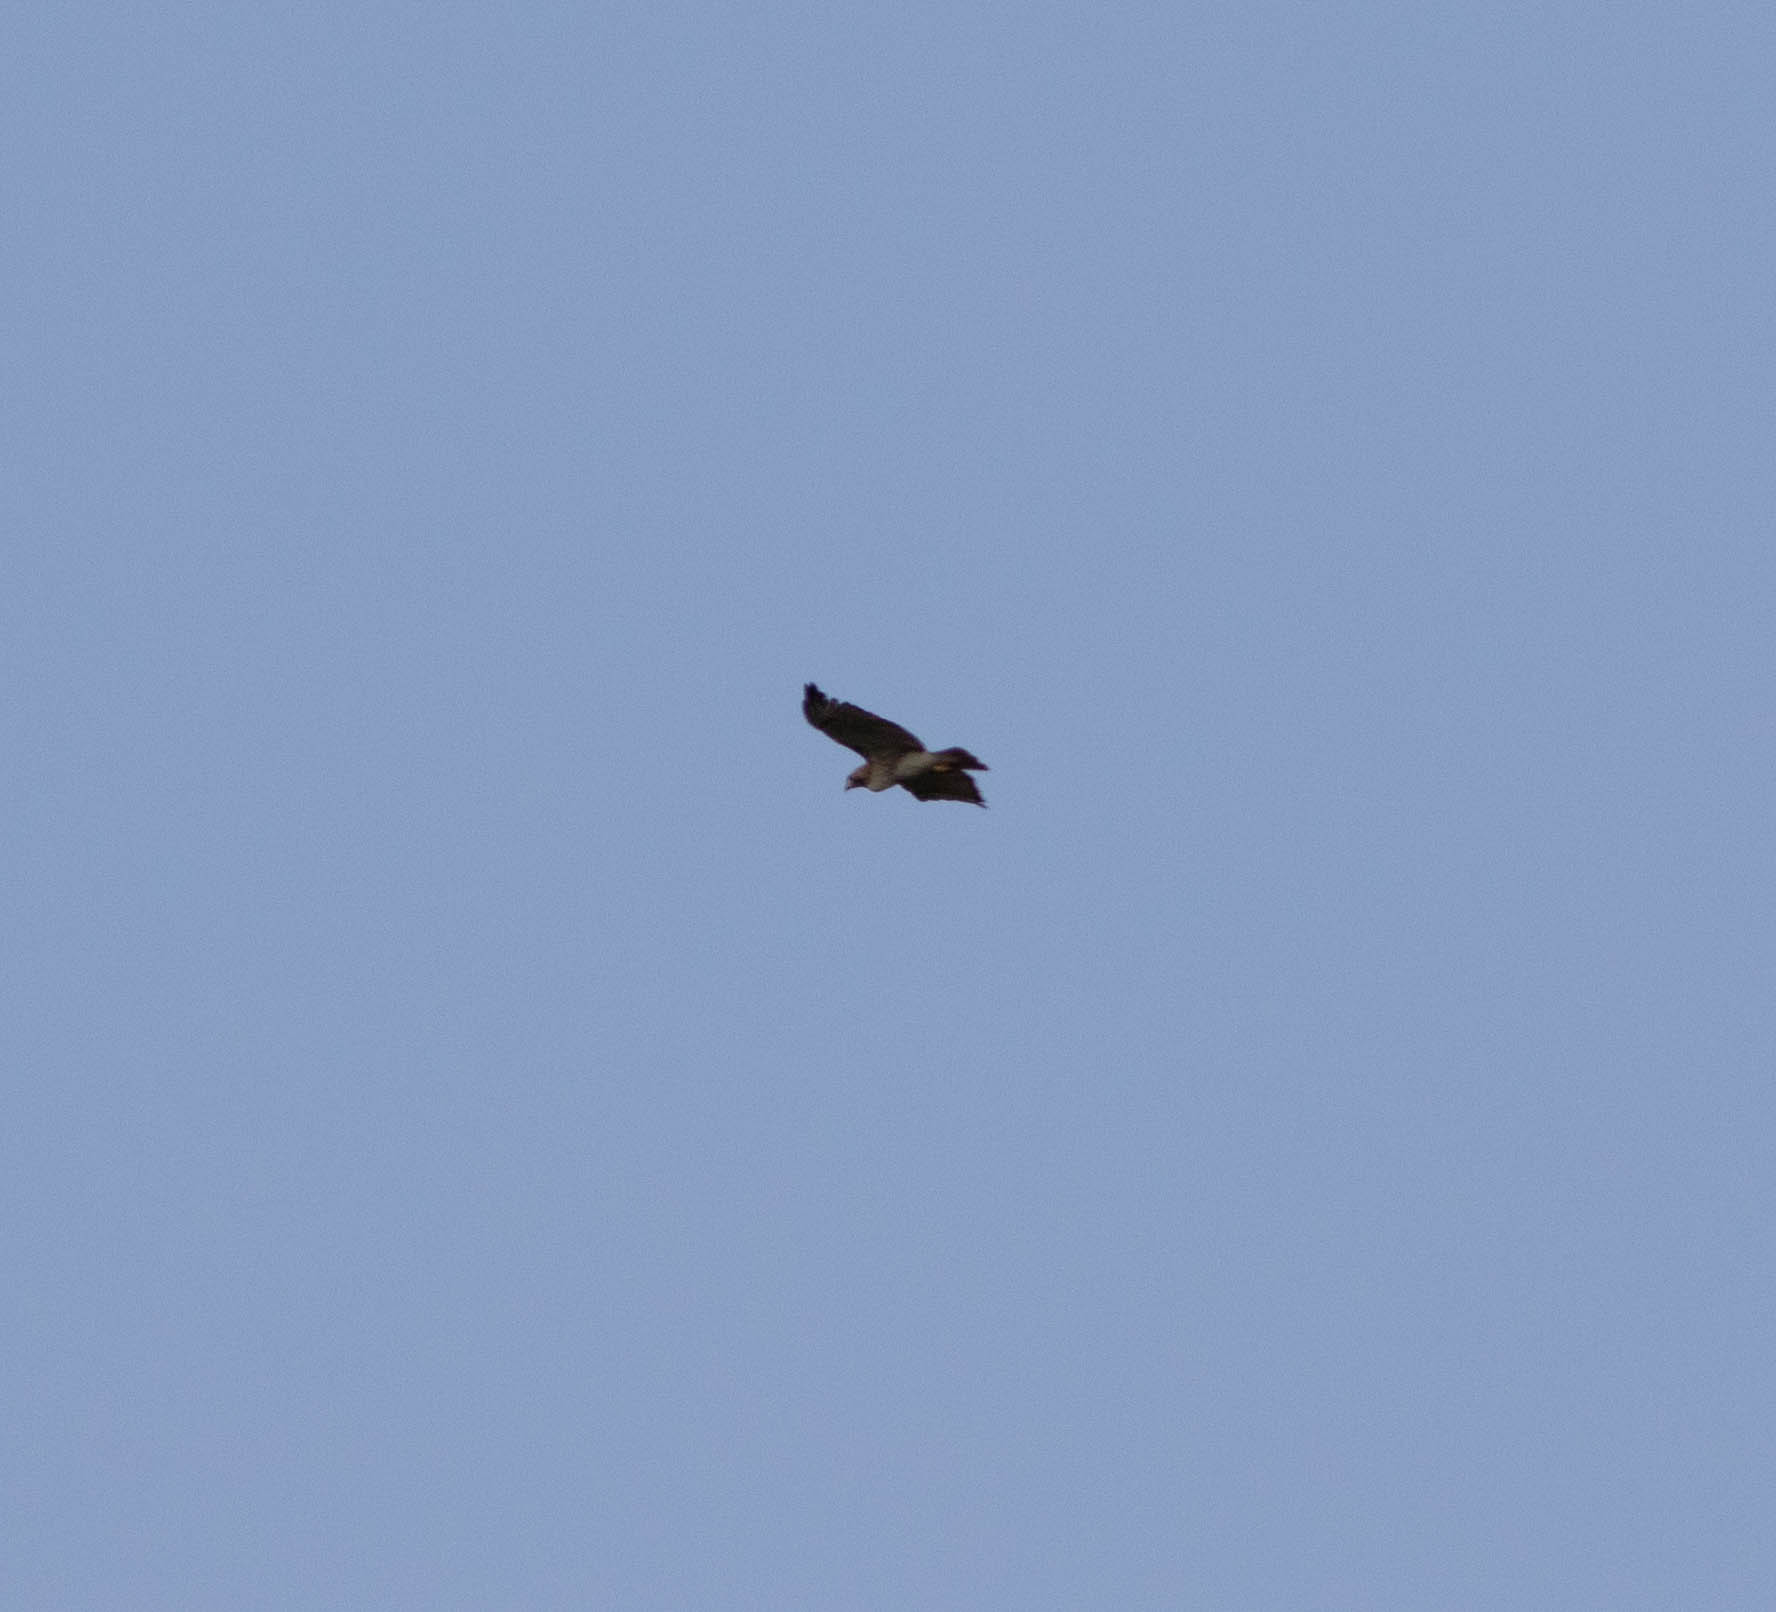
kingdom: Animalia
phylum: Chordata
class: Aves
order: Accipitriformes
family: Accipitridae
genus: Buteo
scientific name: Buteo jamaicensis
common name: Red-tailed hawk
